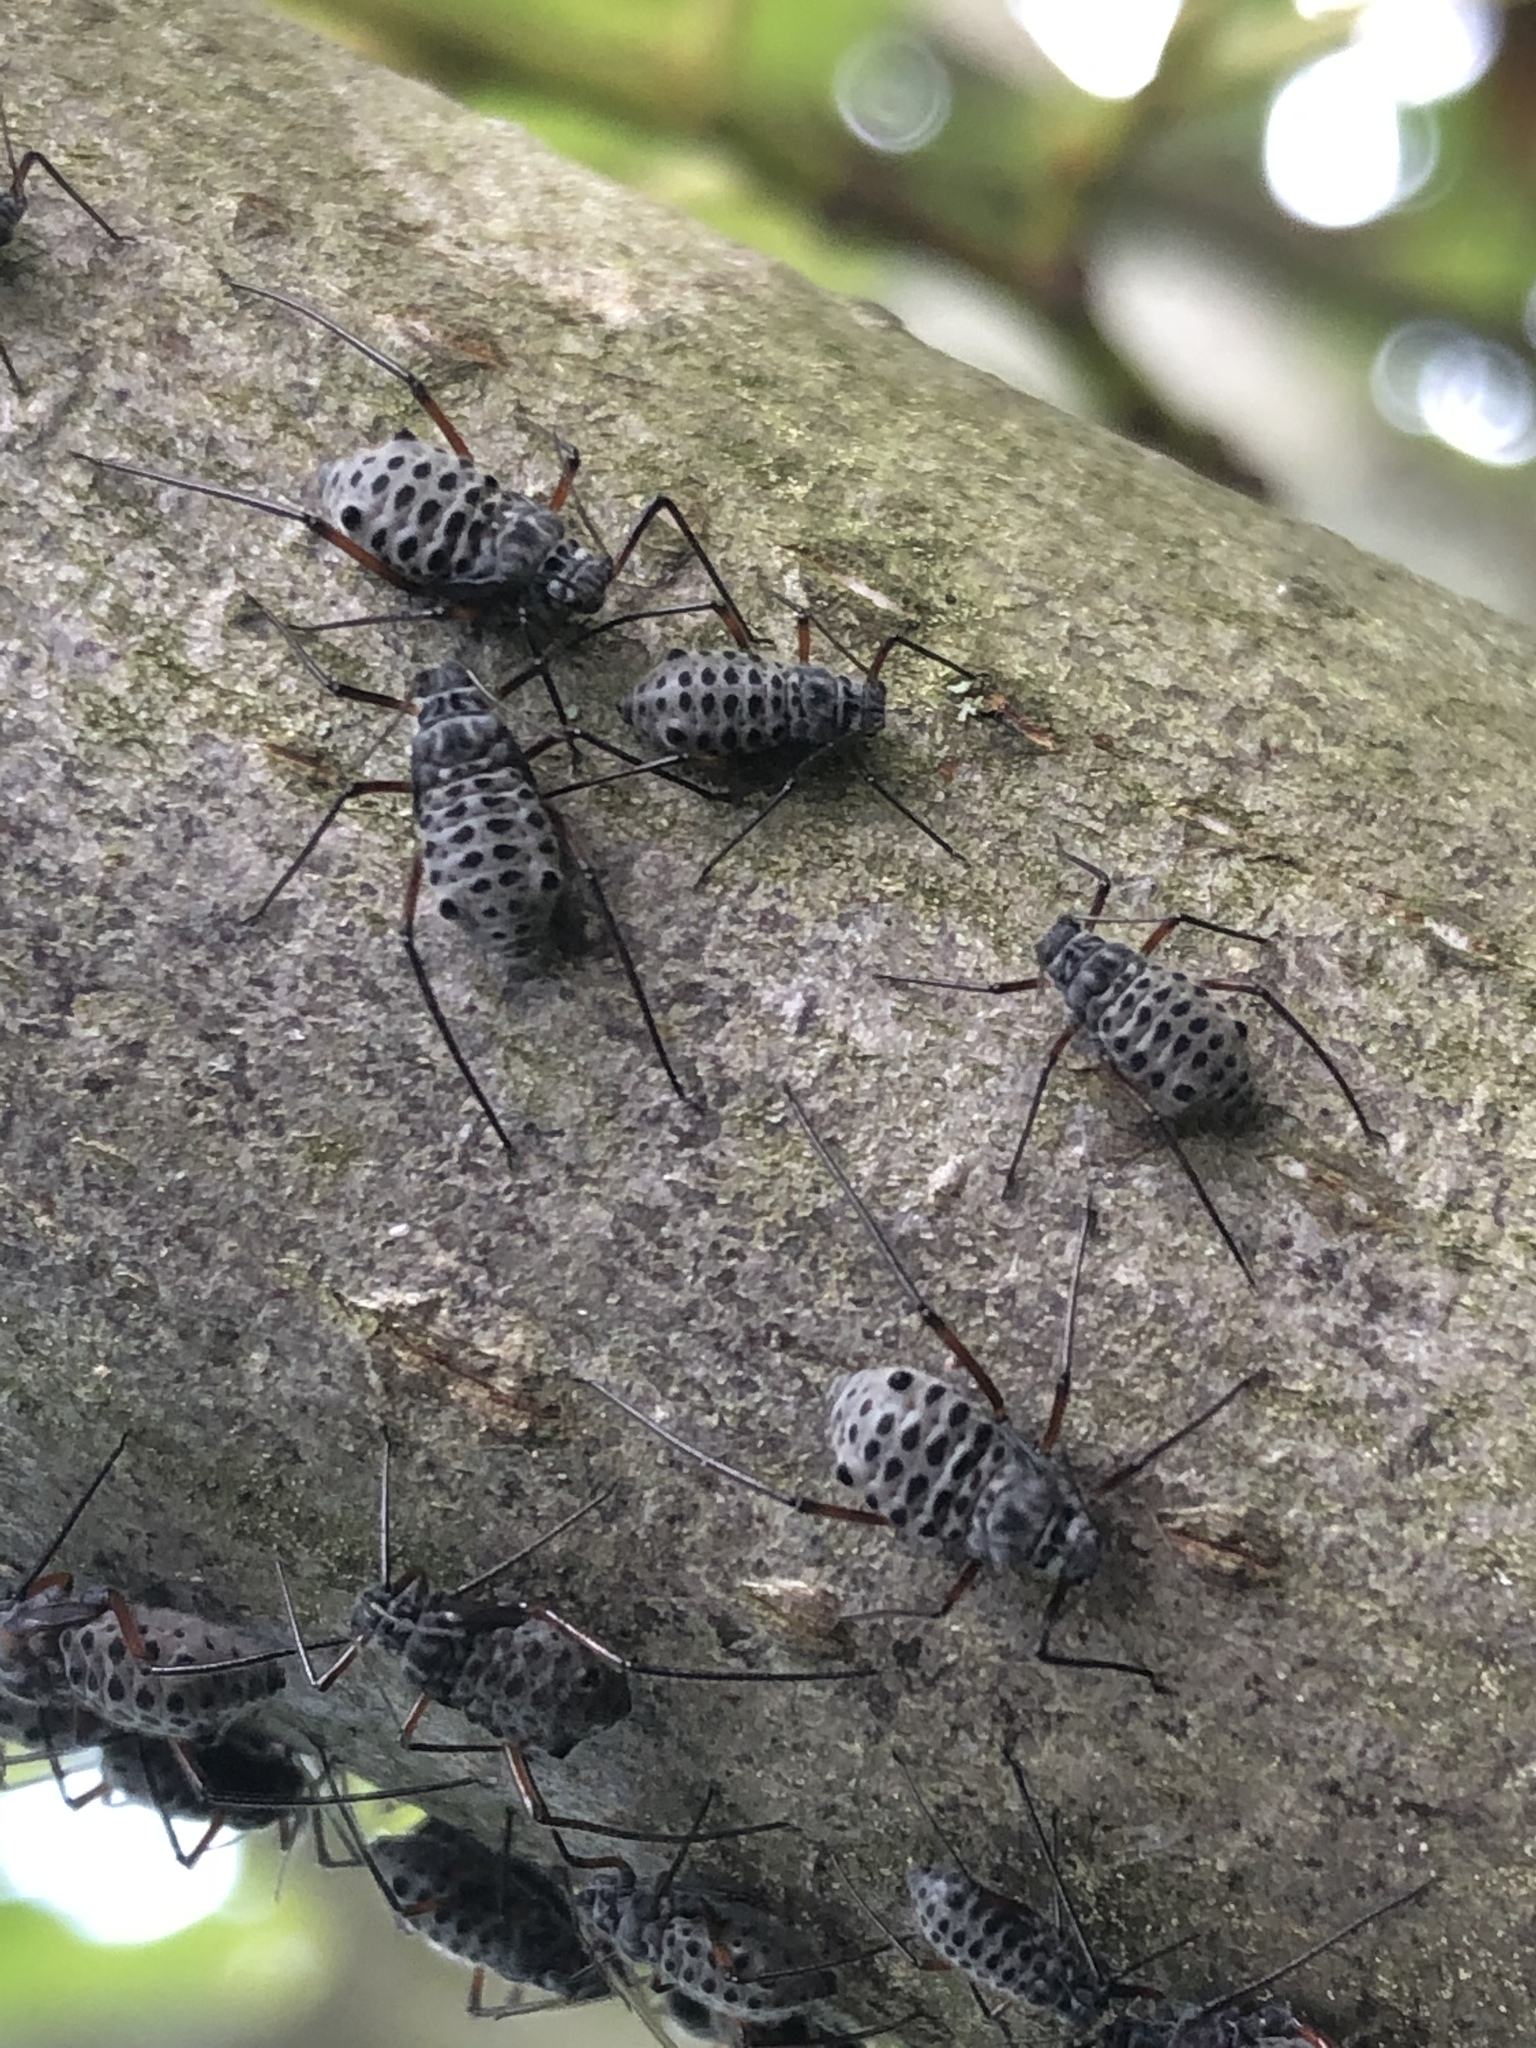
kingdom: Animalia
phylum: Arthropoda
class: Insecta
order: Hemiptera
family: Aphididae
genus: Longistigma
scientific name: Longistigma caryae
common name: Giant bark aphid
